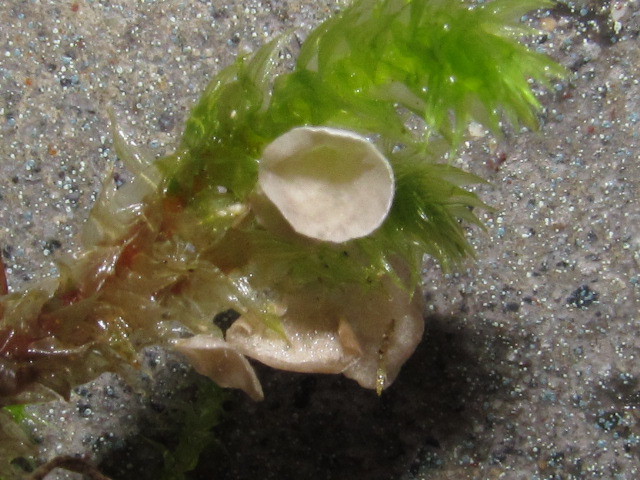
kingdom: Fungi
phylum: Basidiomycota
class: Agaricomycetes
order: Agaricales
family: Hygrophoraceae
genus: Arrhenia
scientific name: Arrhenia retiruga
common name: Small moss oysterling
